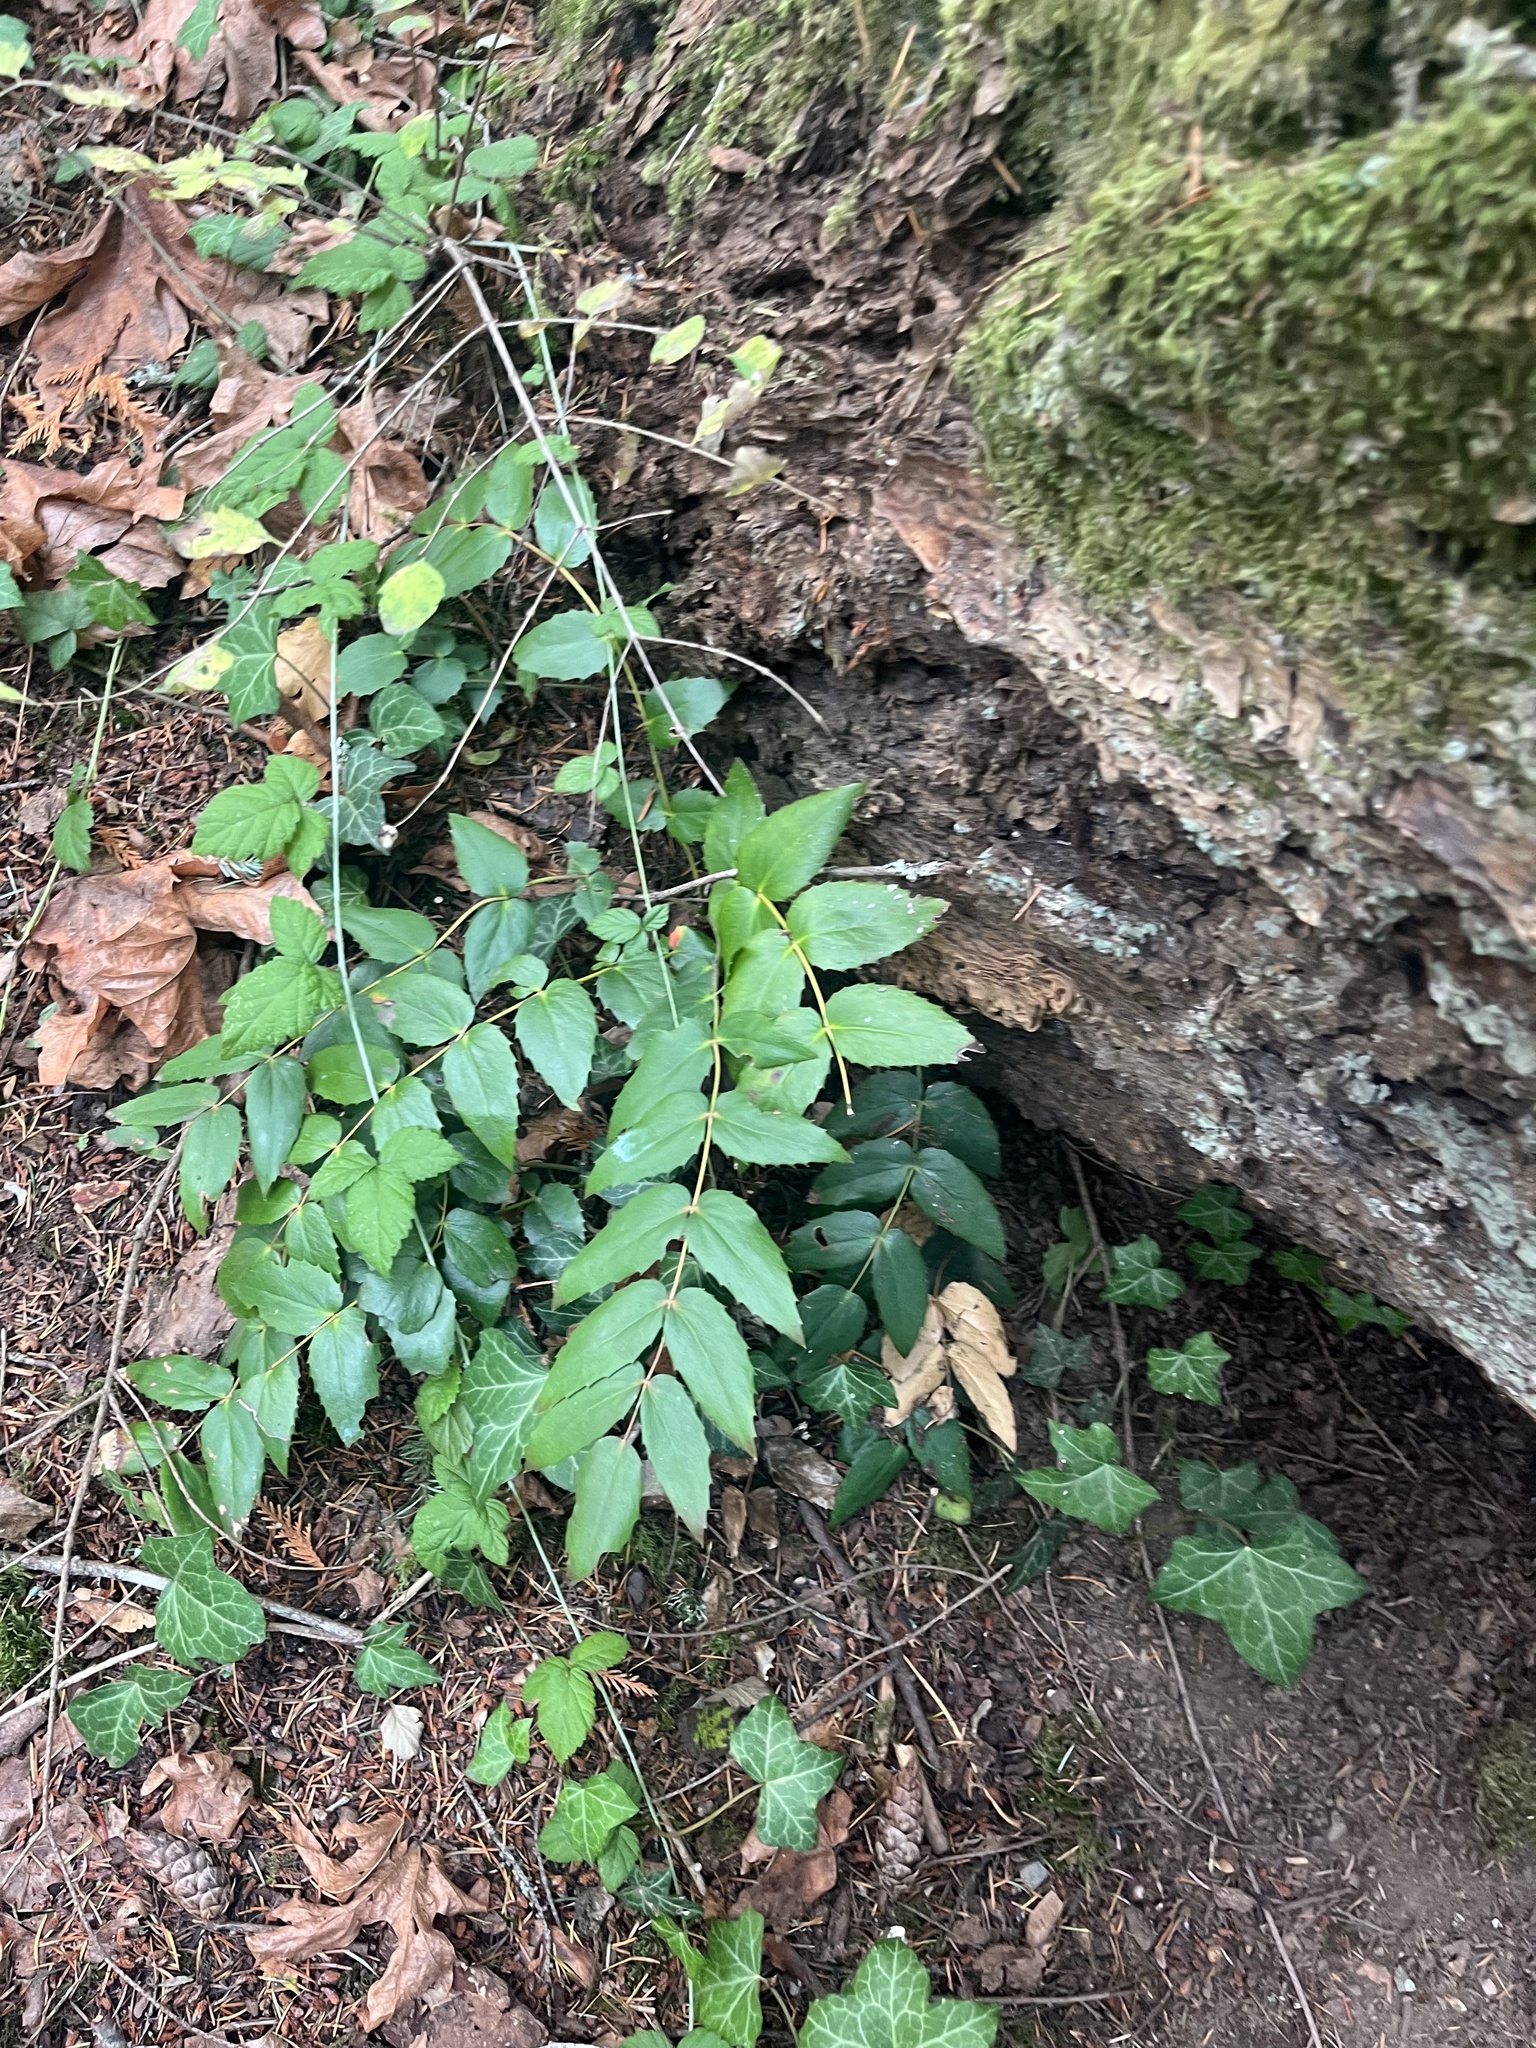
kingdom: Plantae
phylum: Tracheophyta
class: Magnoliopsida
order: Ranunculales
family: Berberidaceae
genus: Mahonia
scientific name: Mahonia nervosa
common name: Cascade oregon-grape
